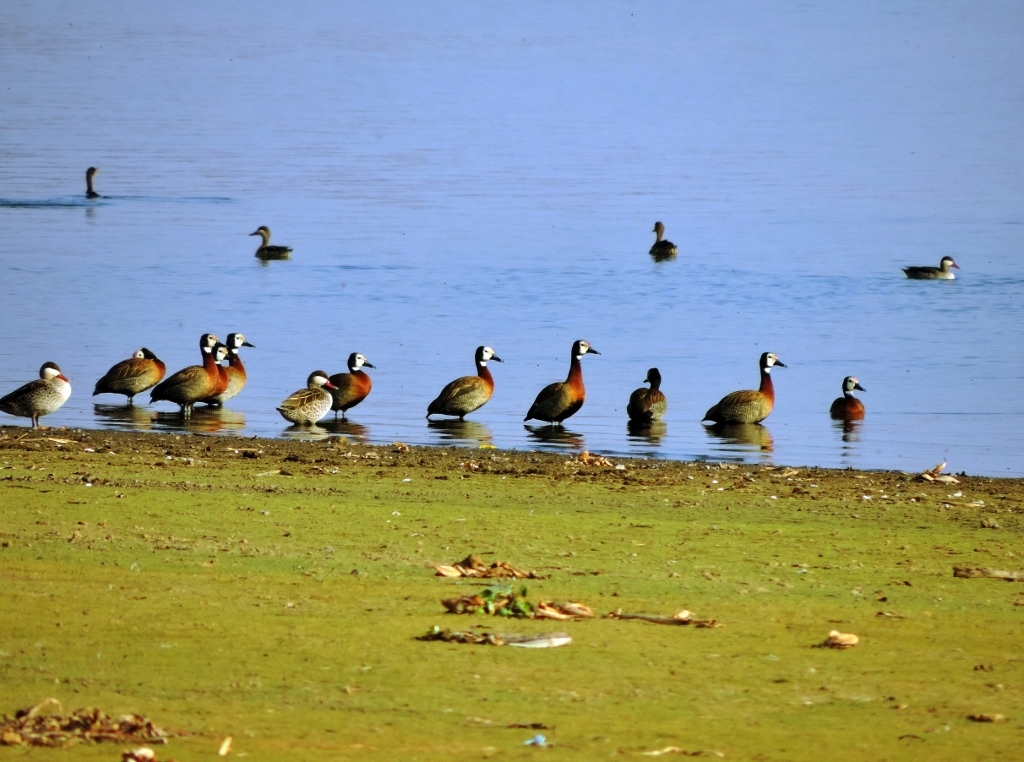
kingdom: Animalia
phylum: Chordata
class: Aves
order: Anseriformes
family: Anatidae
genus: Dendrocygna
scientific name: Dendrocygna viduata
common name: White-faced whistling duck
